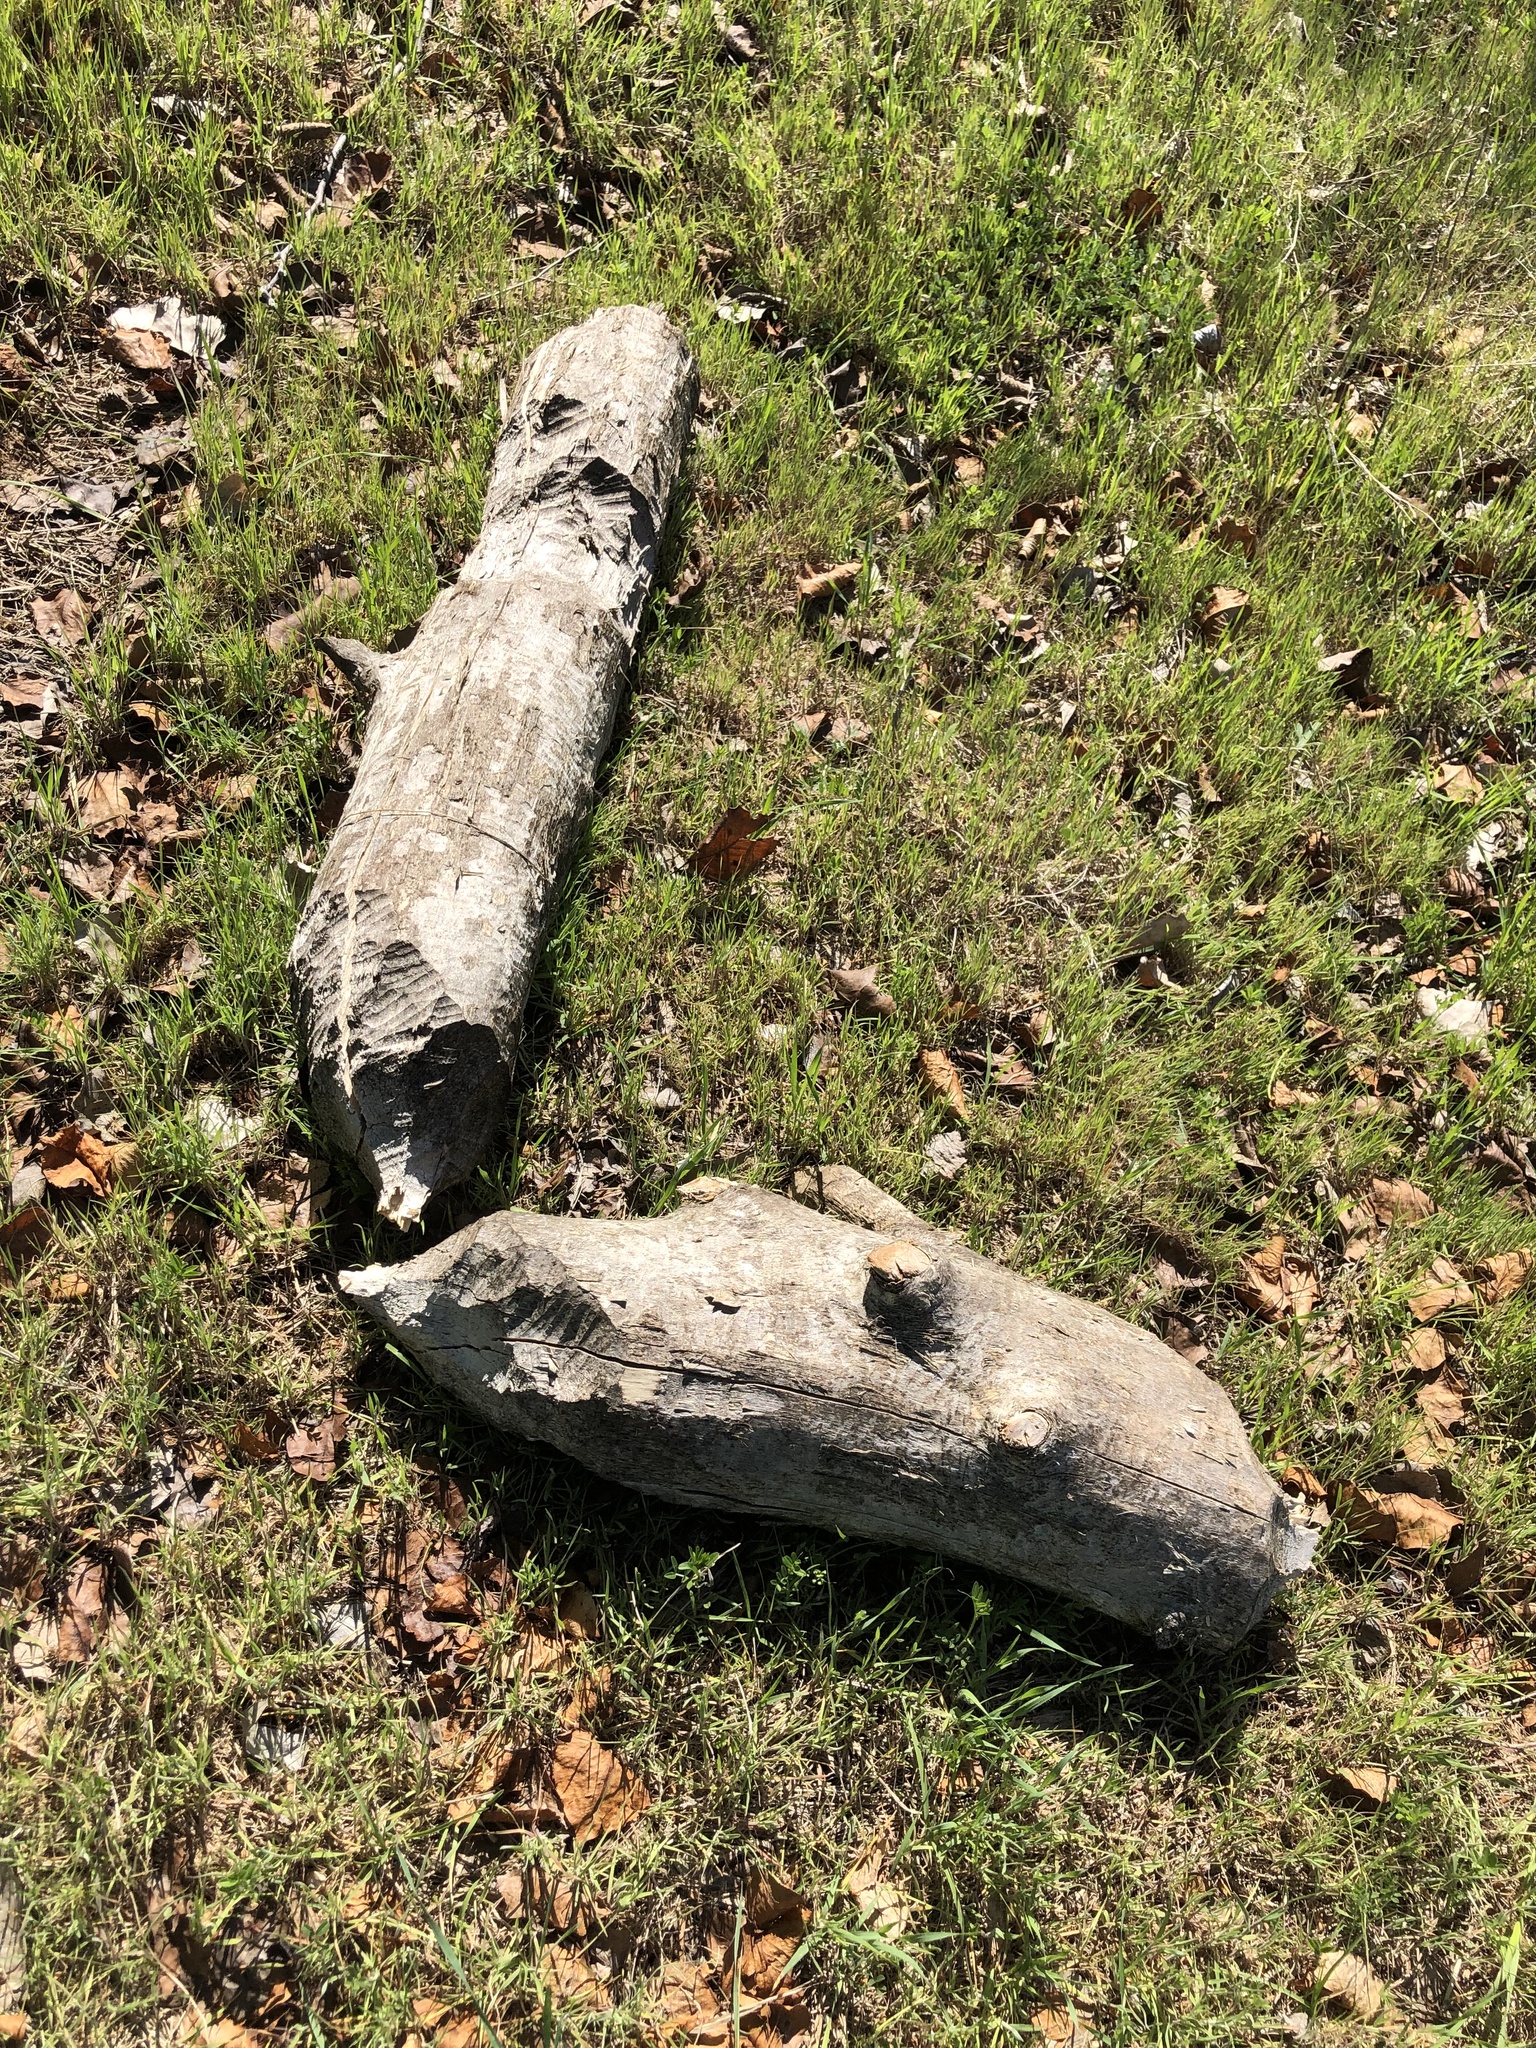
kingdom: Animalia
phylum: Chordata
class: Mammalia
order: Rodentia
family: Castoridae
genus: Castor
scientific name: Castor canadensis
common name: American beaver
